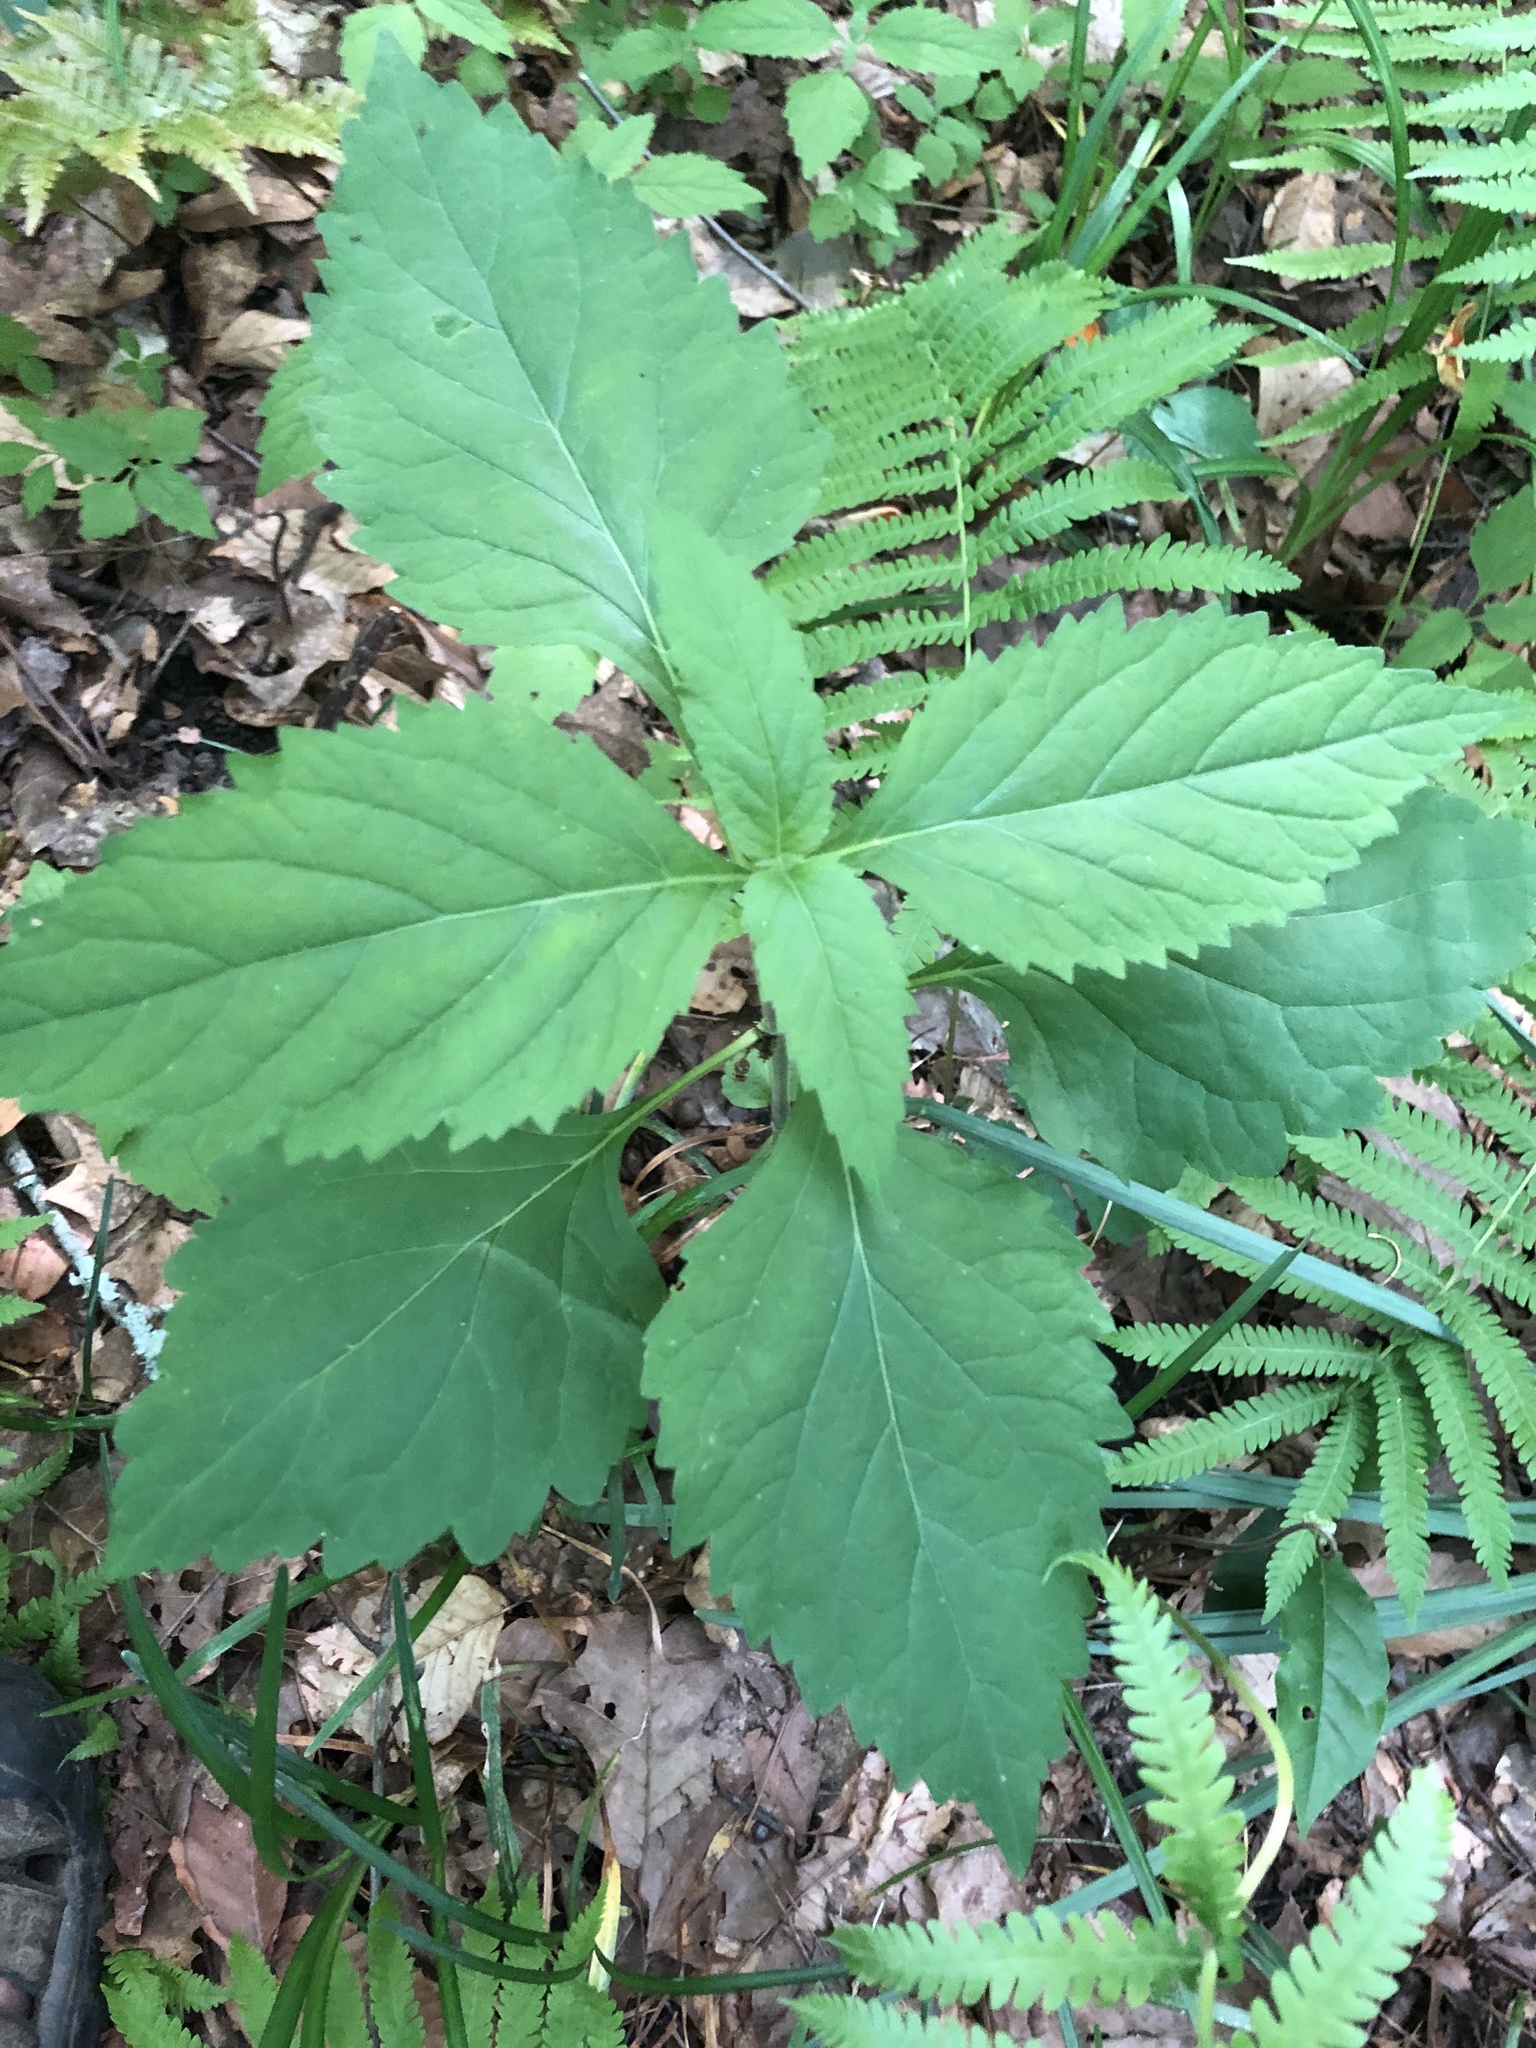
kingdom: Plantae
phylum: Tracheophyta
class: Magnoliopsida
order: Lamiales
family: Phrymaceae
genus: Phryma
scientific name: Phryma leptostachya
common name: American lopseed
